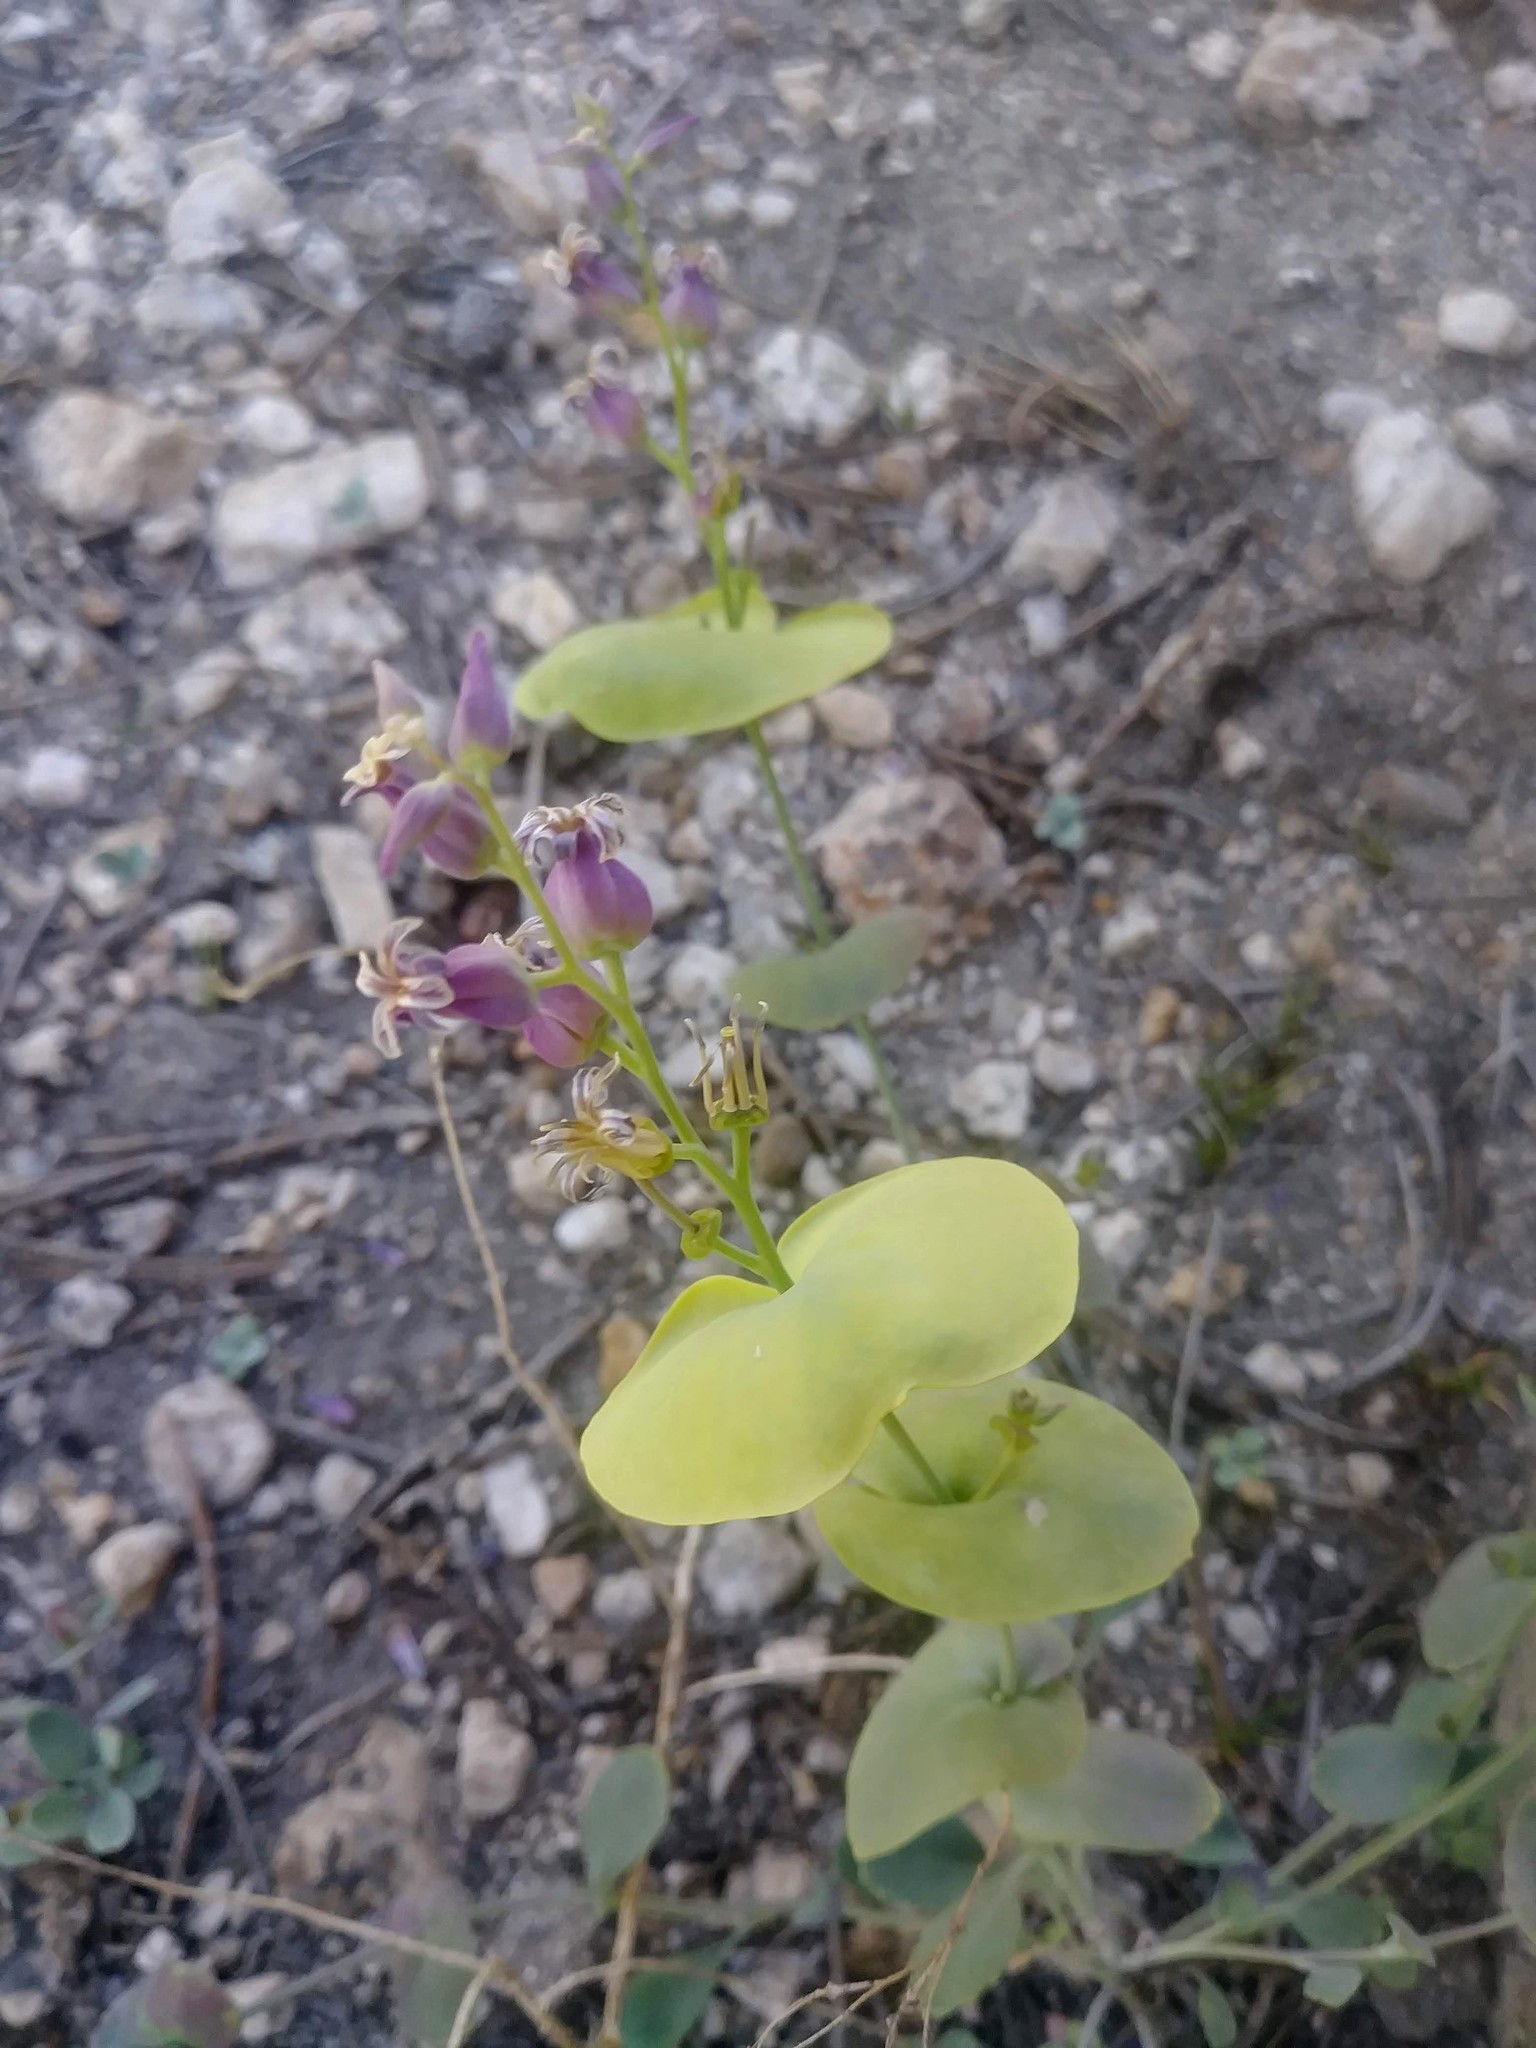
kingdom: Plantae
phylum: Tracheophyta
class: Magnoliopsida
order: Brassicales
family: Brassicaceae
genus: Streptanthus
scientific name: Streptanthus tortuosus
